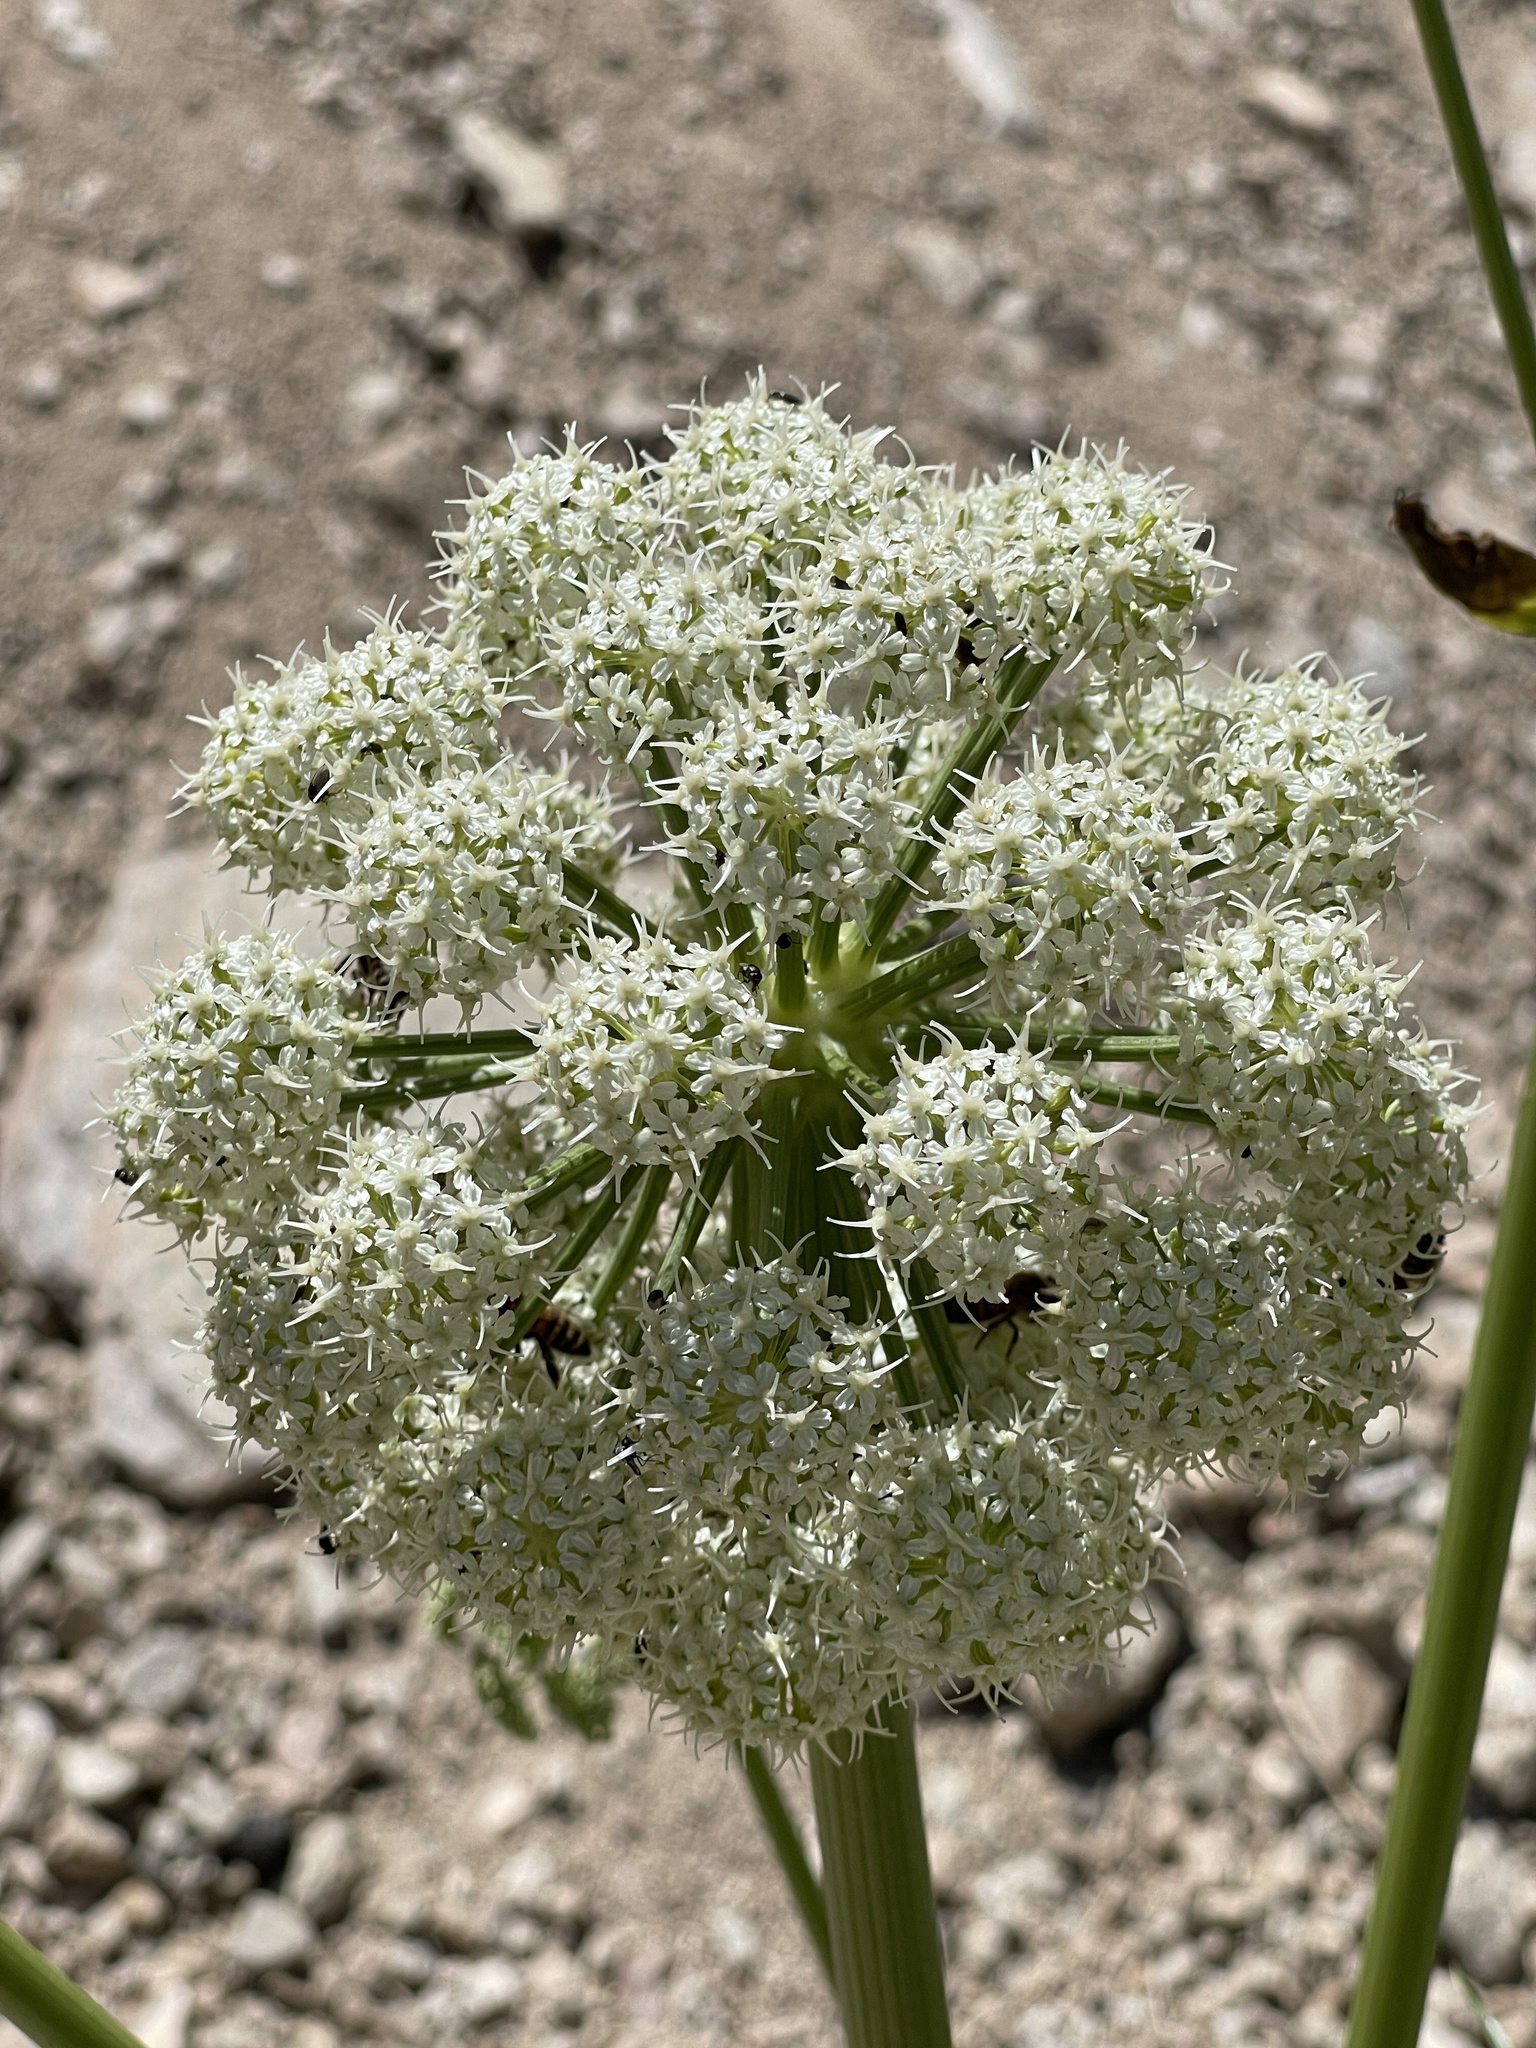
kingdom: Plantae
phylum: Tracheophyta
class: Magnoliopsida
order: Apiales
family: Apiaceae
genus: Angelica
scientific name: Angelica lineariloba
